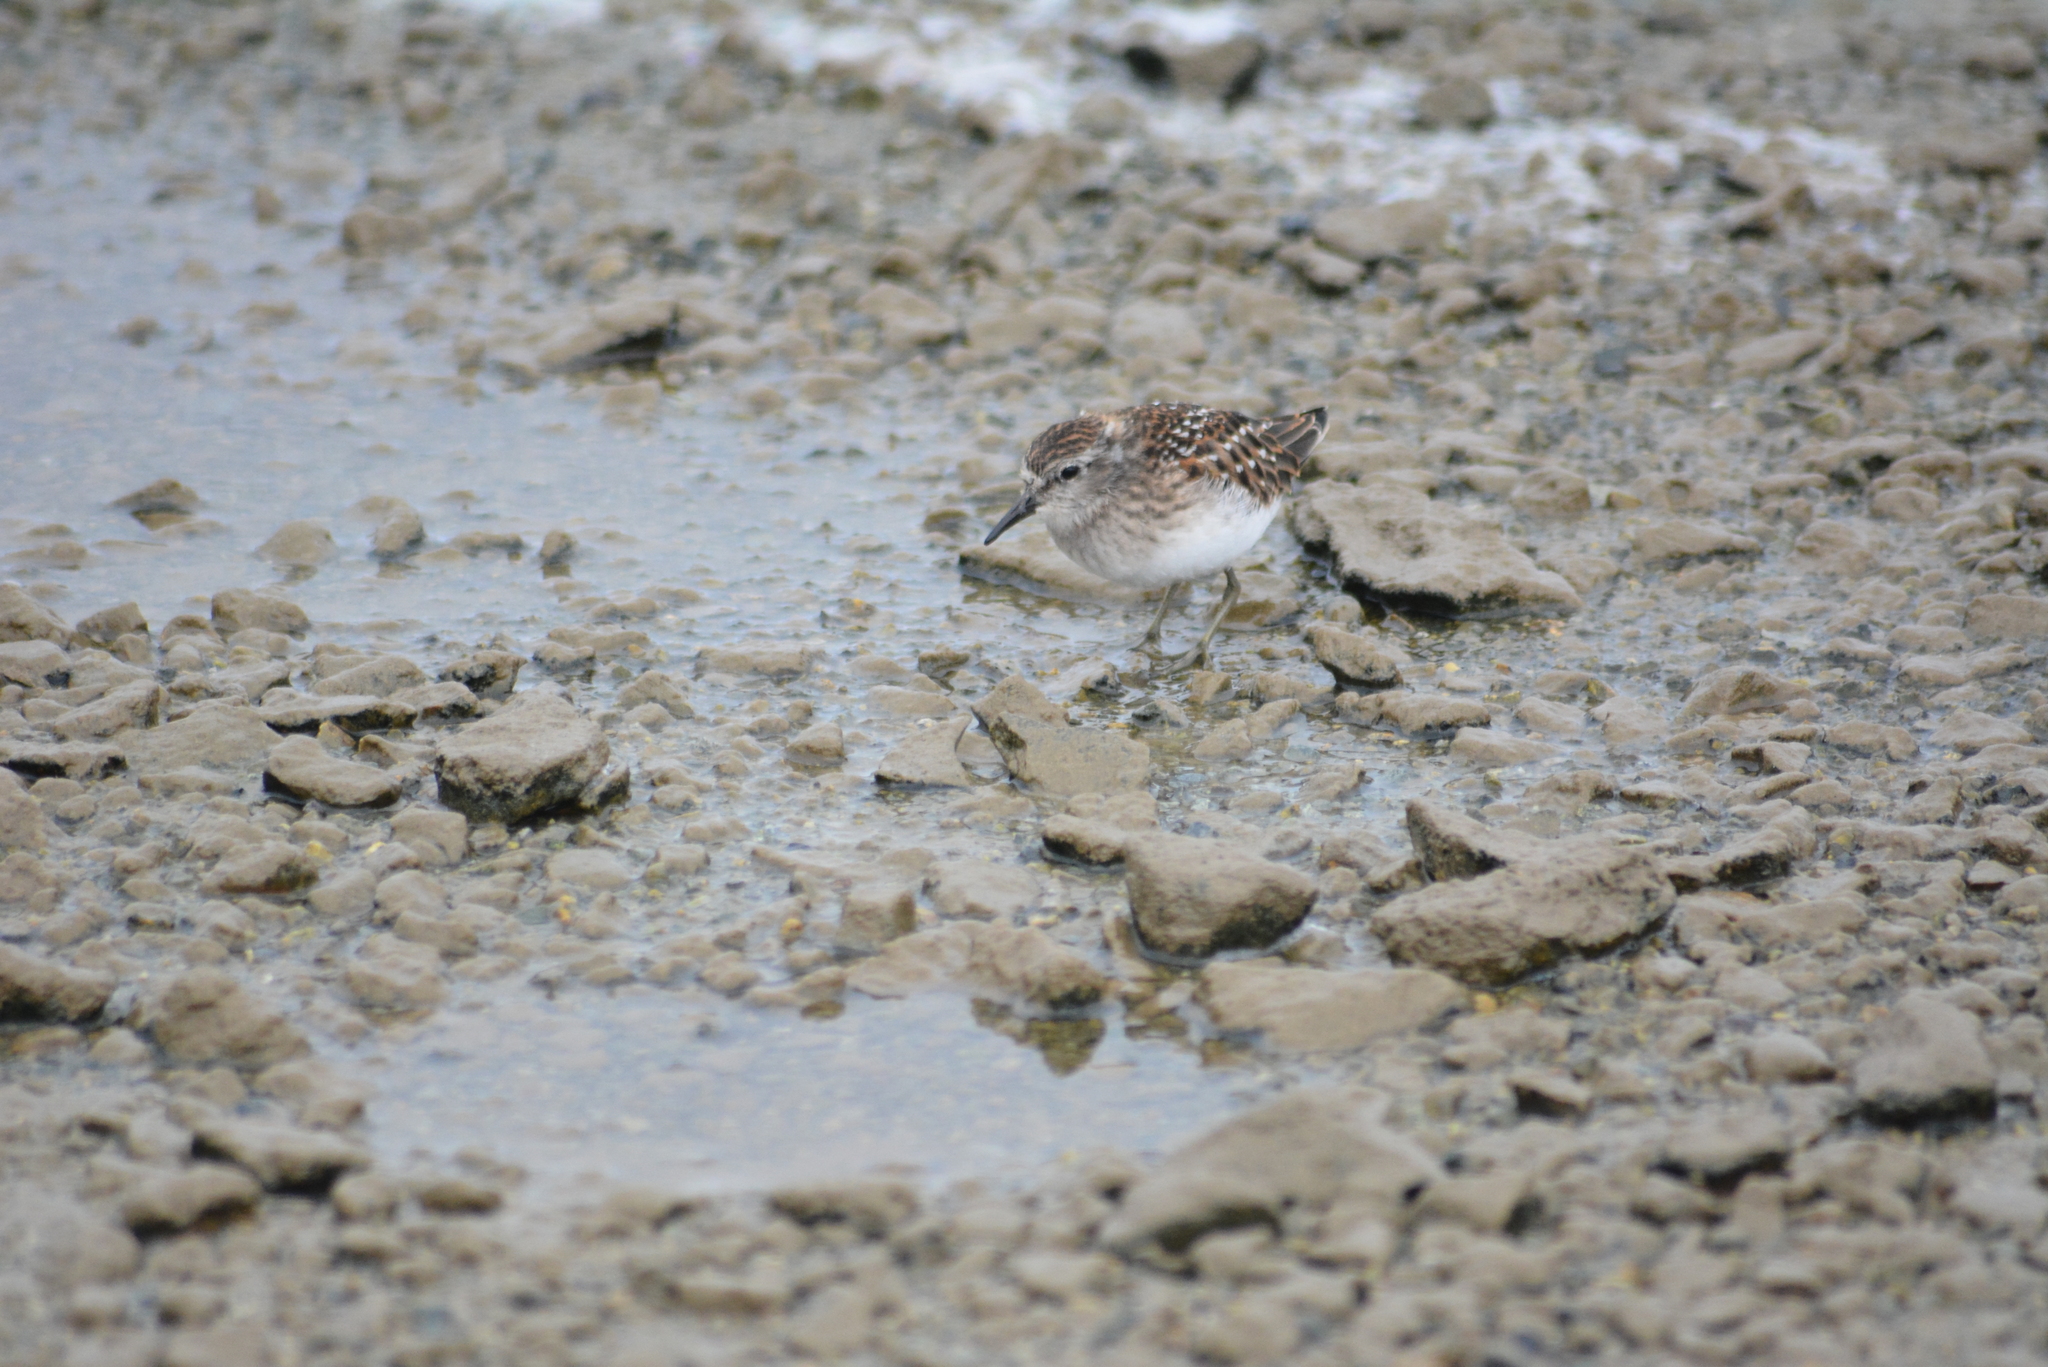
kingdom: Animalia
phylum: Chordata
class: Aves
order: Charadriiformes
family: Scolopacidae
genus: Calidris
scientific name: Calidris minutilla
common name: Least sandpiper
